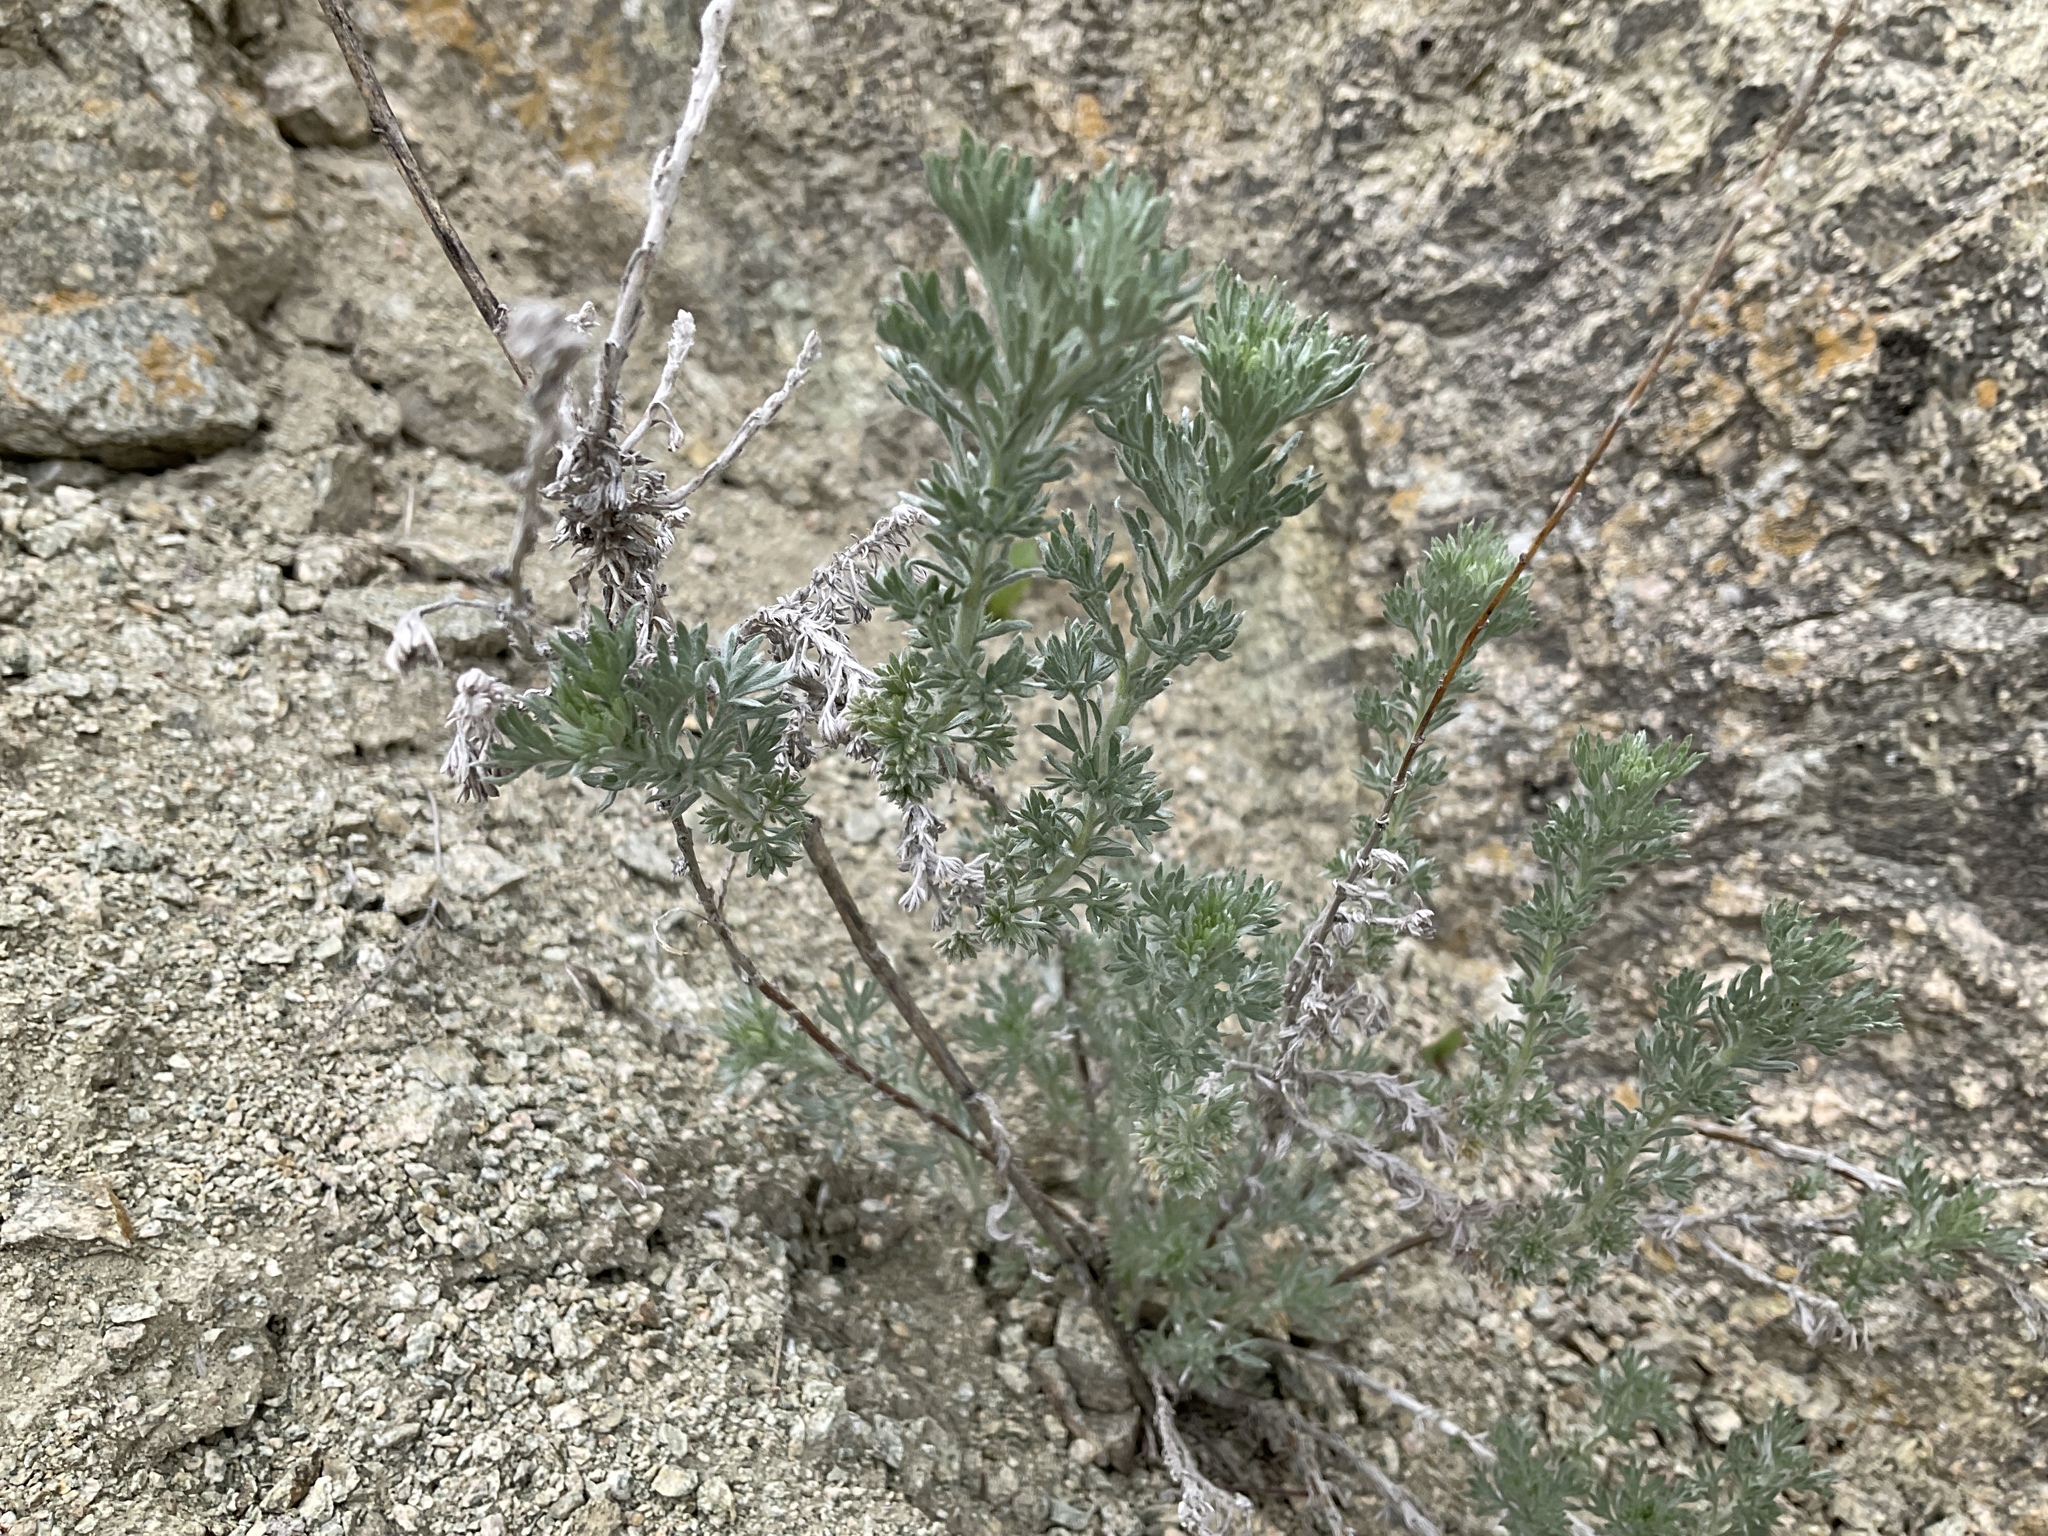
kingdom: Plantae
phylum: Tracheophyta
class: Magnoliopsida
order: Asterales
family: Asteraceae
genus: Artemisia
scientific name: Artemisia frigida
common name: Prairie sagewort
